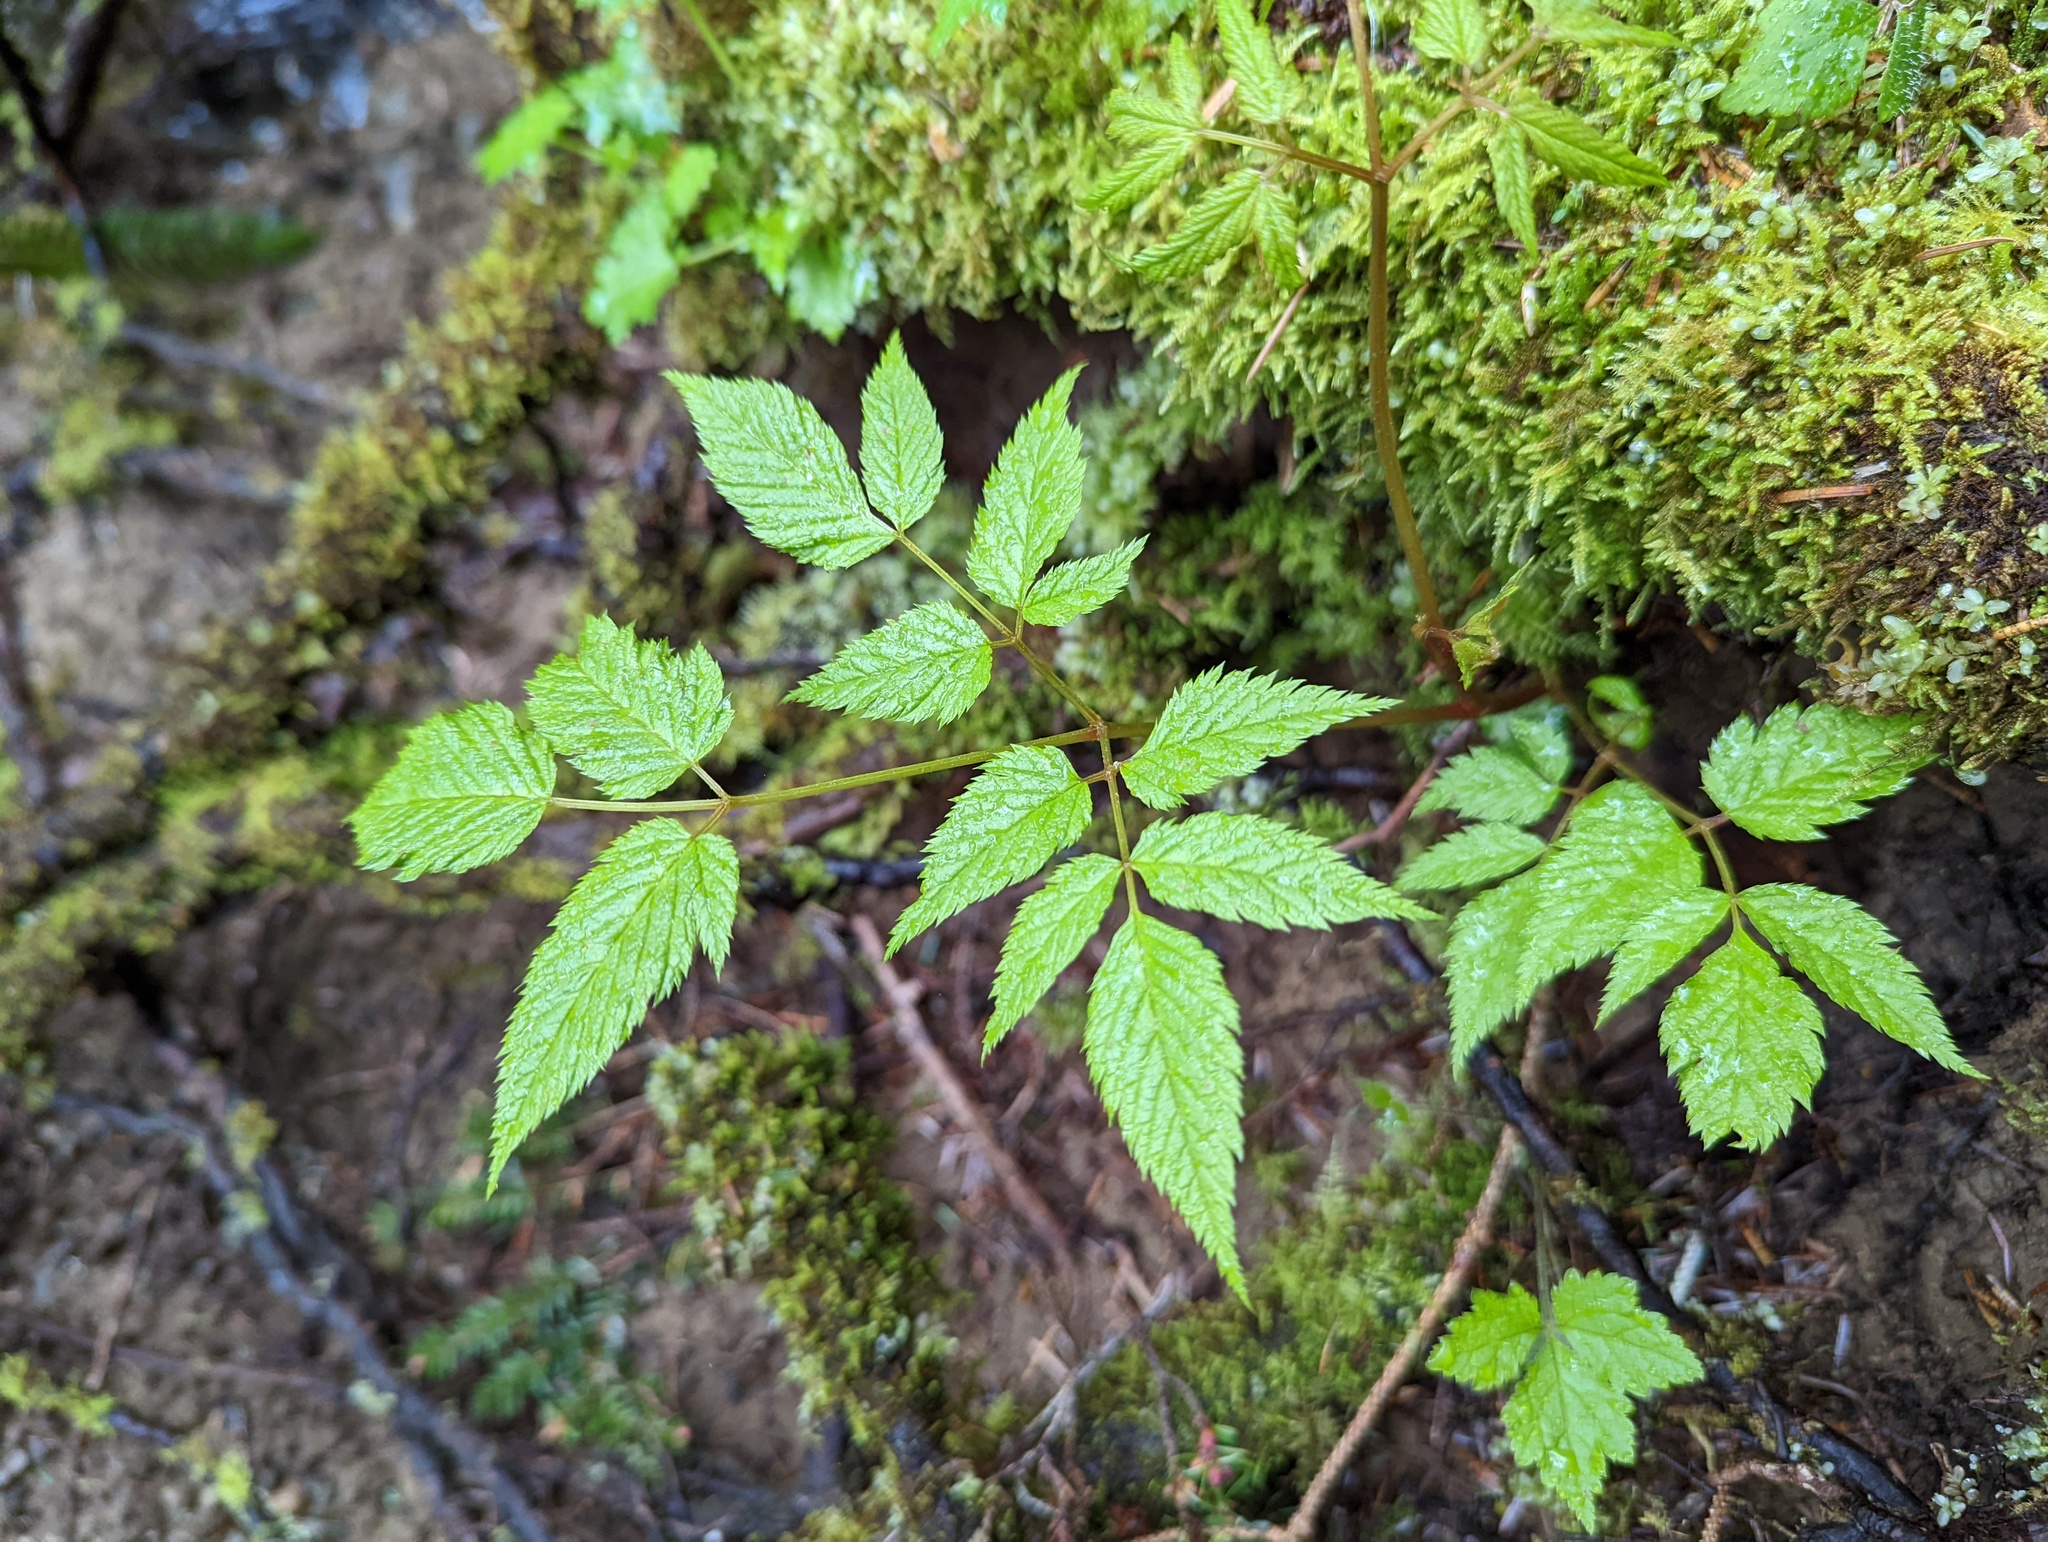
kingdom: Plantae
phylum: Tracheophyta
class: Magnoliopsida
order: Rosales
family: Rosaceae
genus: Aruncus
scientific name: Aruncus dioicus
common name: Buck's-beard
